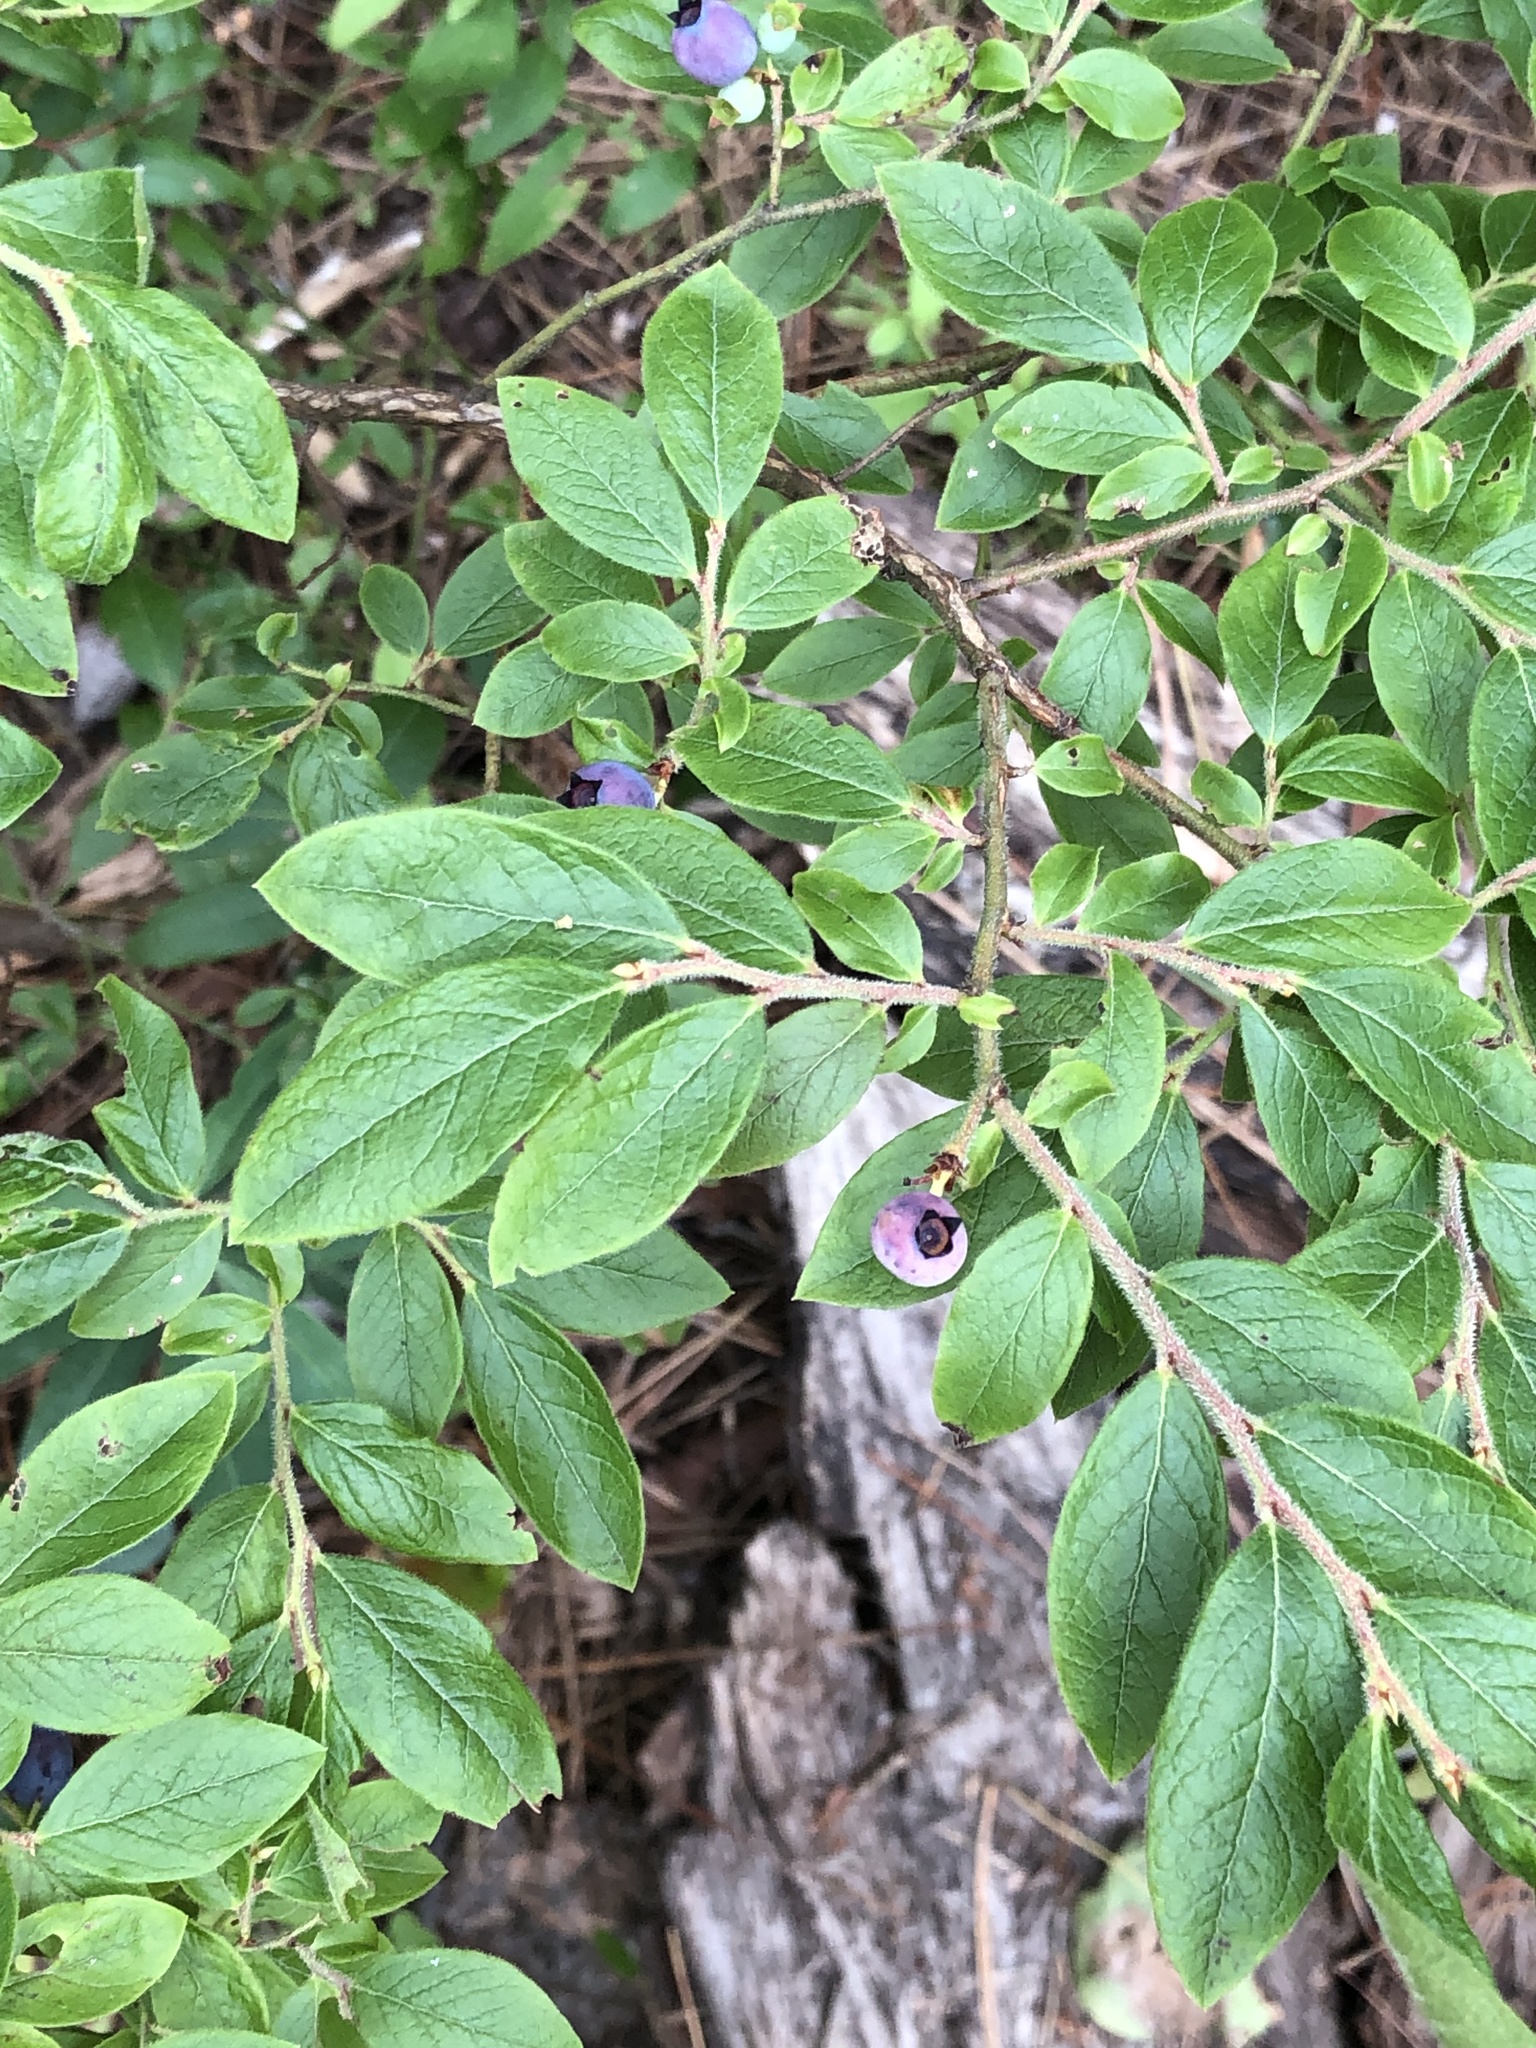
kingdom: Plantae
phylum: Tracheophyta
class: Magnoliopsida
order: Ericales
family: Ericaceae
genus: Vaccinium
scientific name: Vaccinium myrtilloides
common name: Canada blueberry
